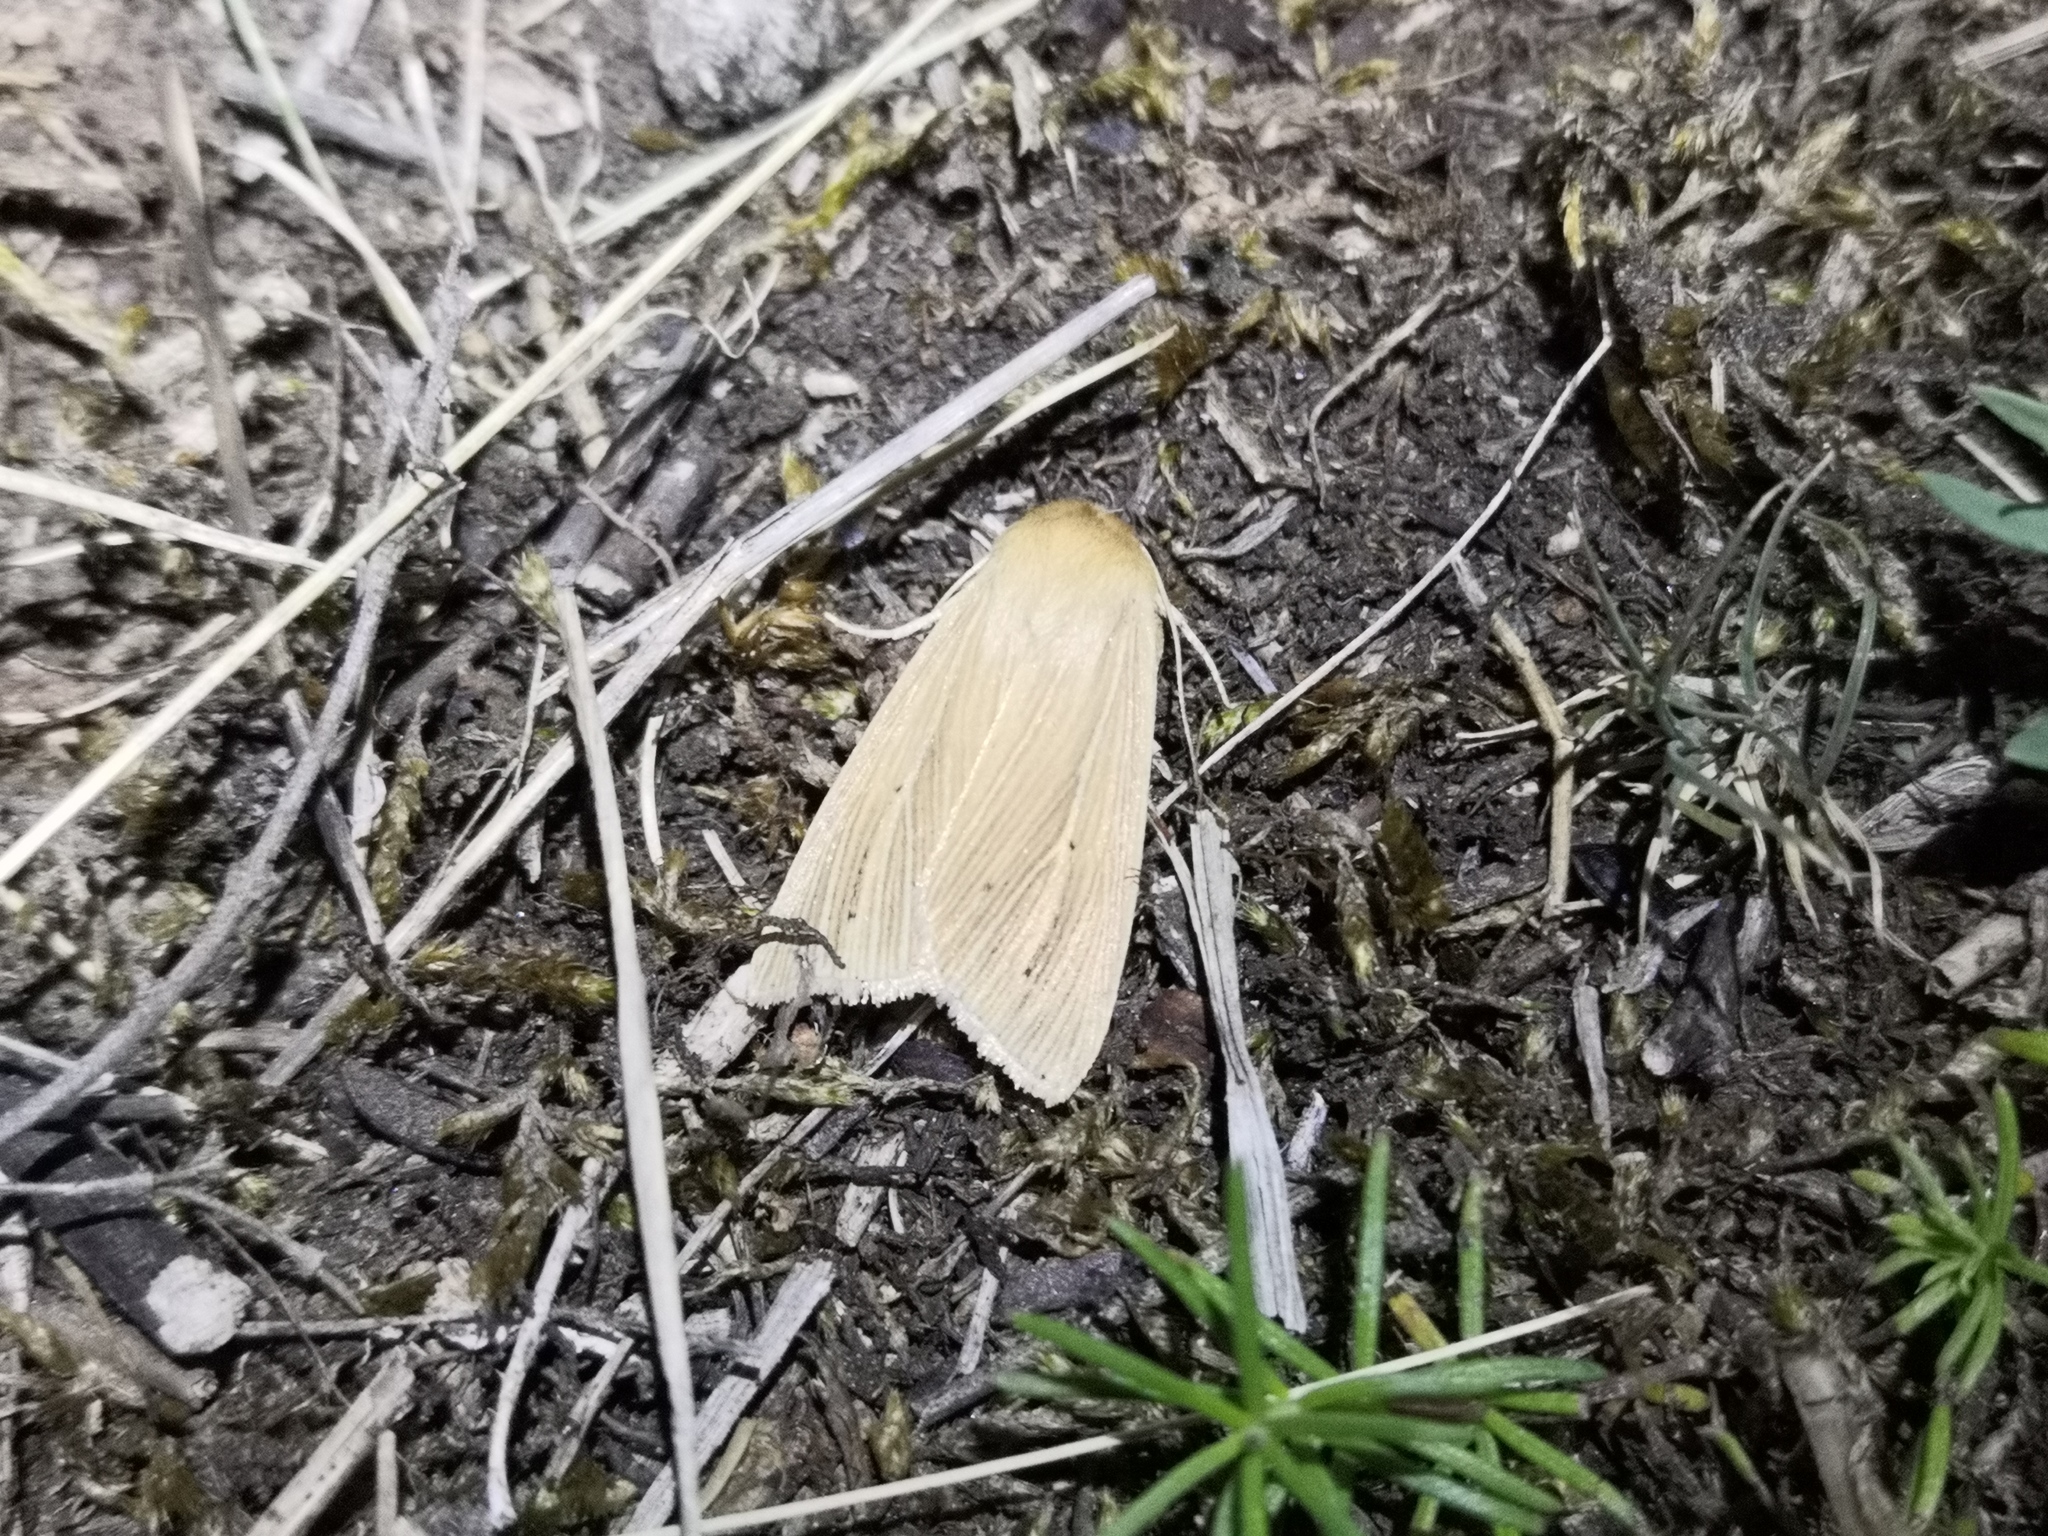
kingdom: Animalia
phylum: Arthropoda
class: Insecta
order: Lepidoptera
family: Noctuidae
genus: Mythimna
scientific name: Mythimna pallens
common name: Common wainscot
